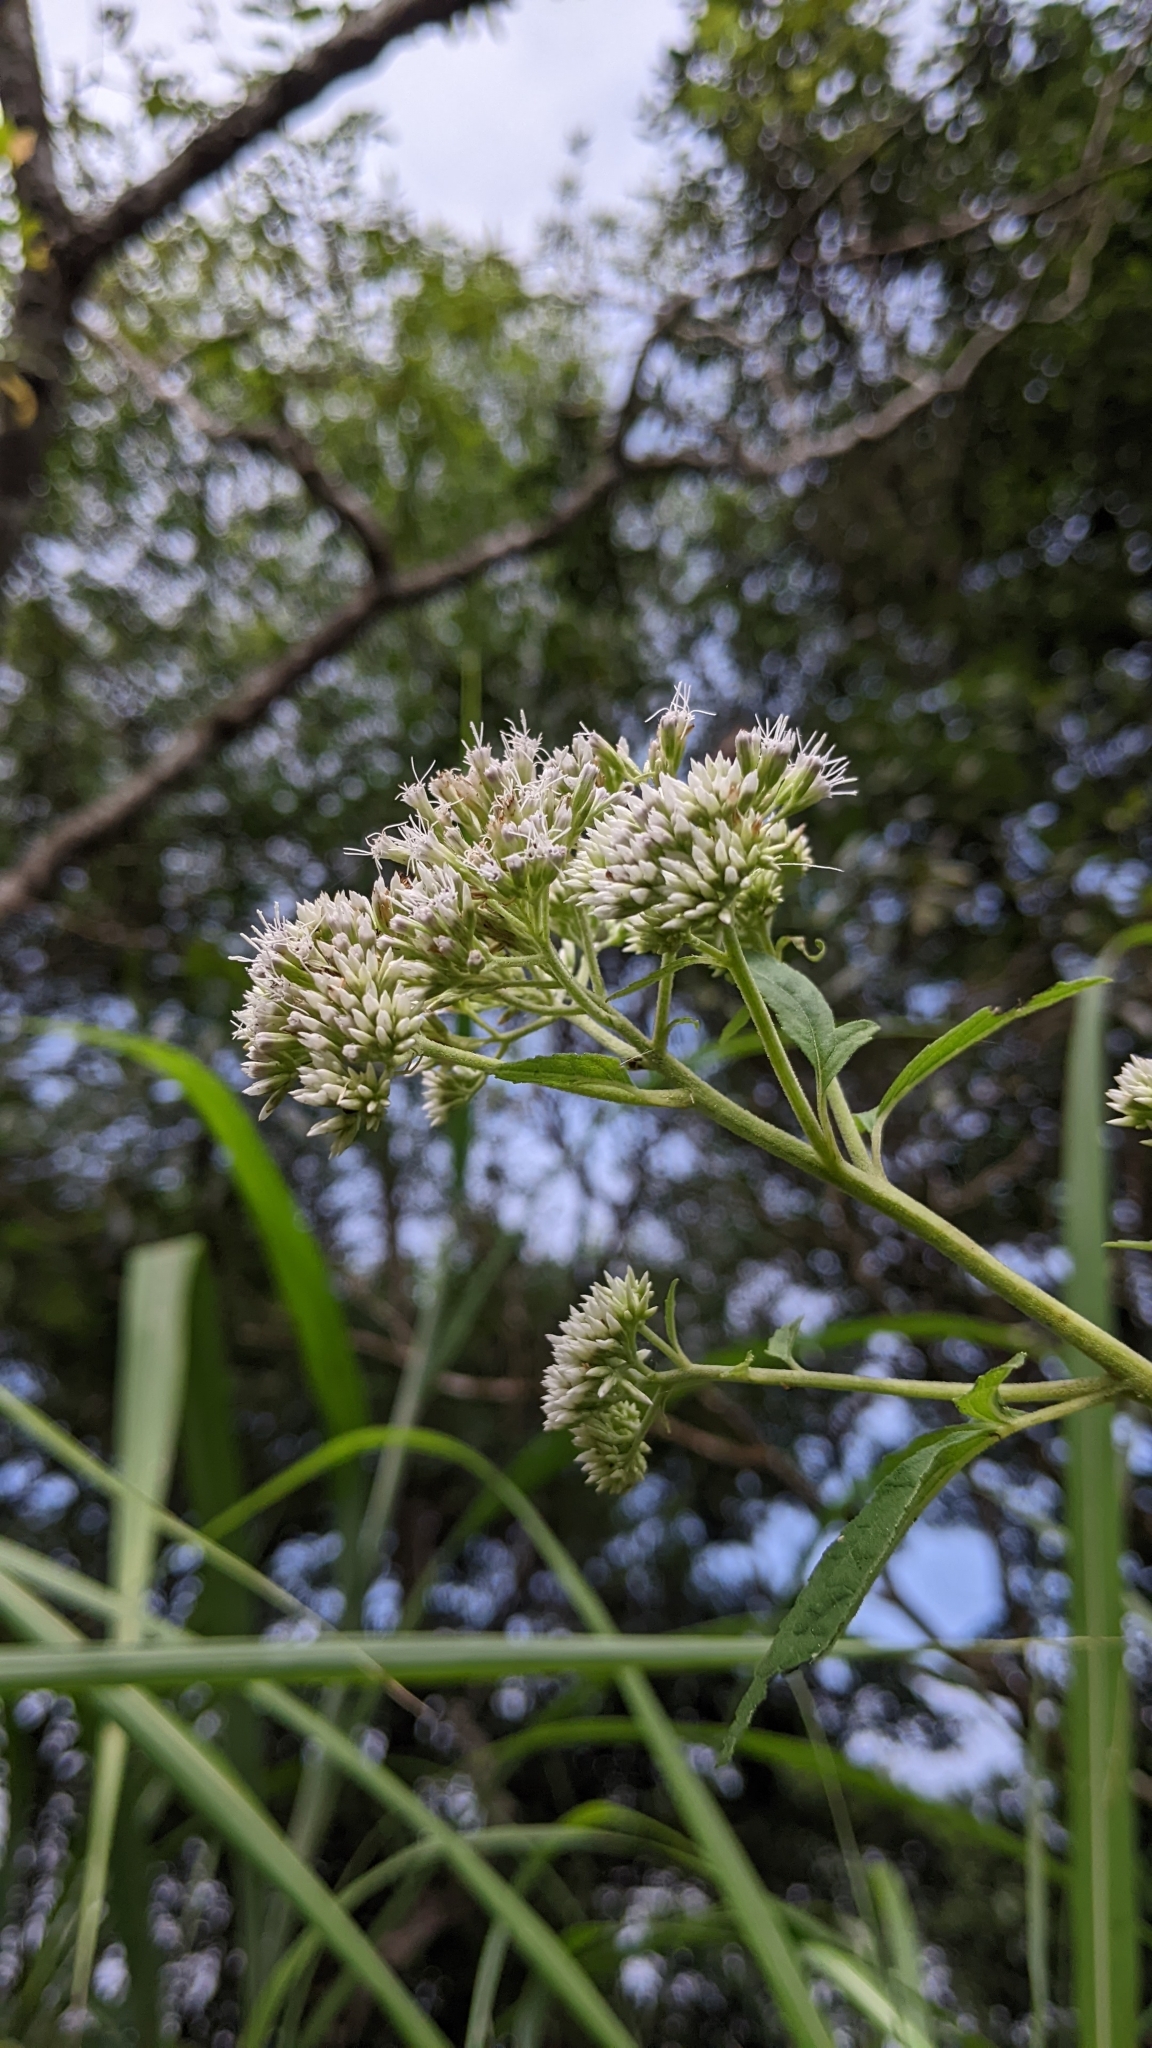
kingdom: Plantae
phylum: Tracheophyta
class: Magnoliopsida
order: Asterales
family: Asteraceae
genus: Eupatorium
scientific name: Eupatorium formosanum
